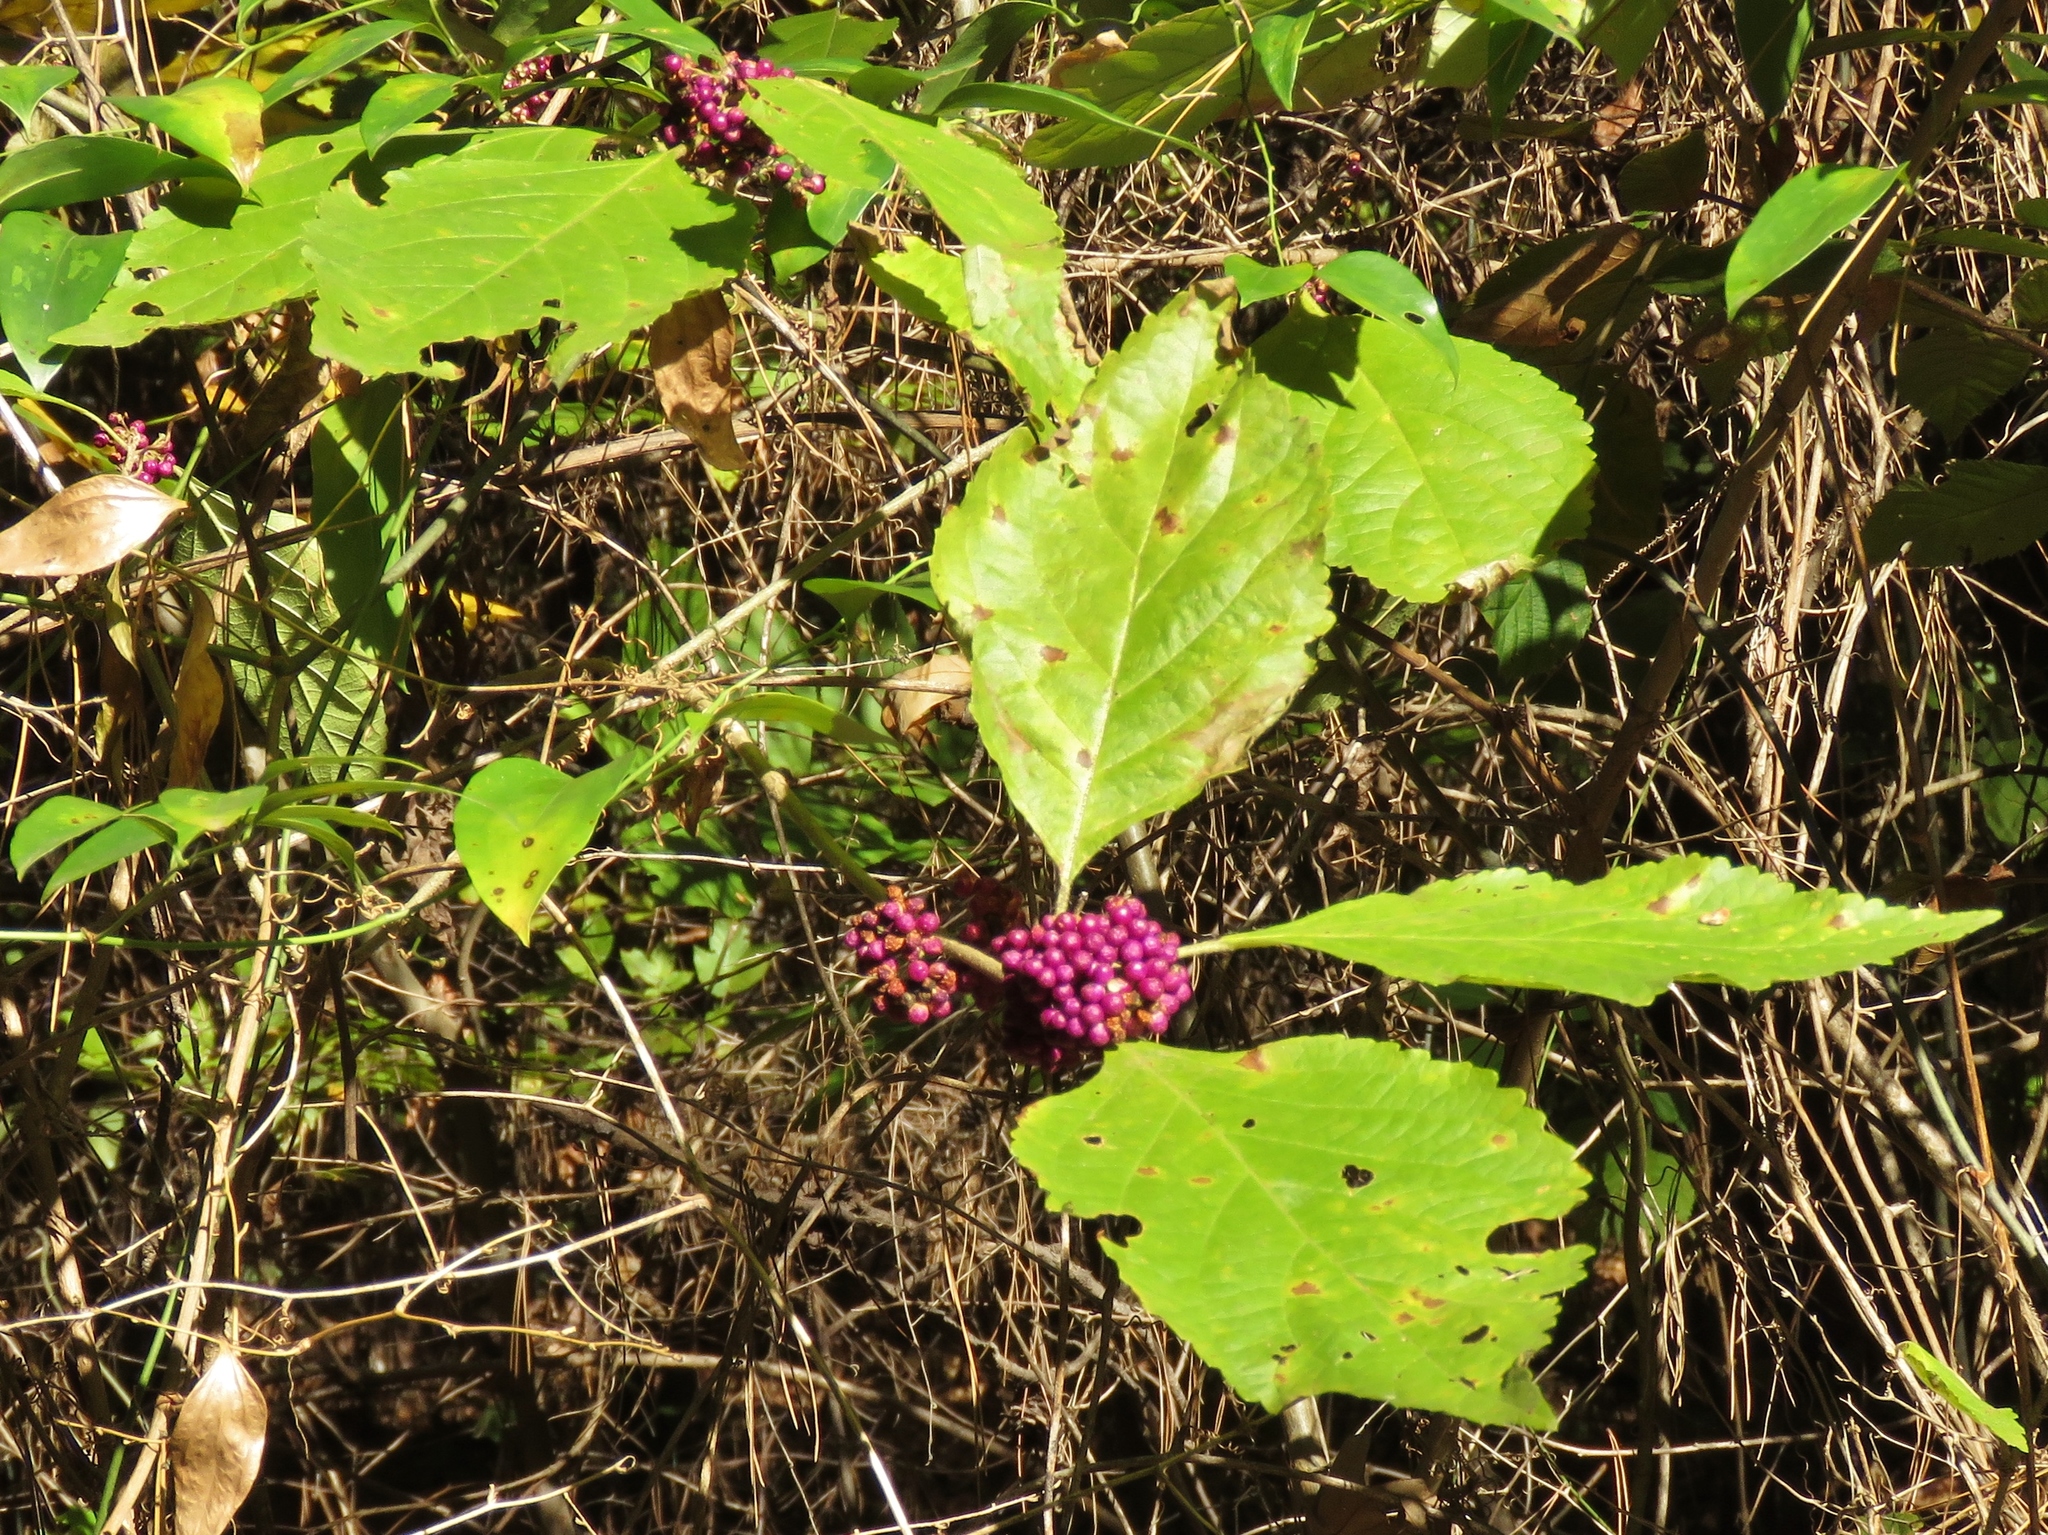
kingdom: Plantae
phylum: Tracheophyta
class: Magnoliopsida
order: Lamiales
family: Lamiaceae
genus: Callicarpa
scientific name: Callicarpa americana
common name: American beautyberry
